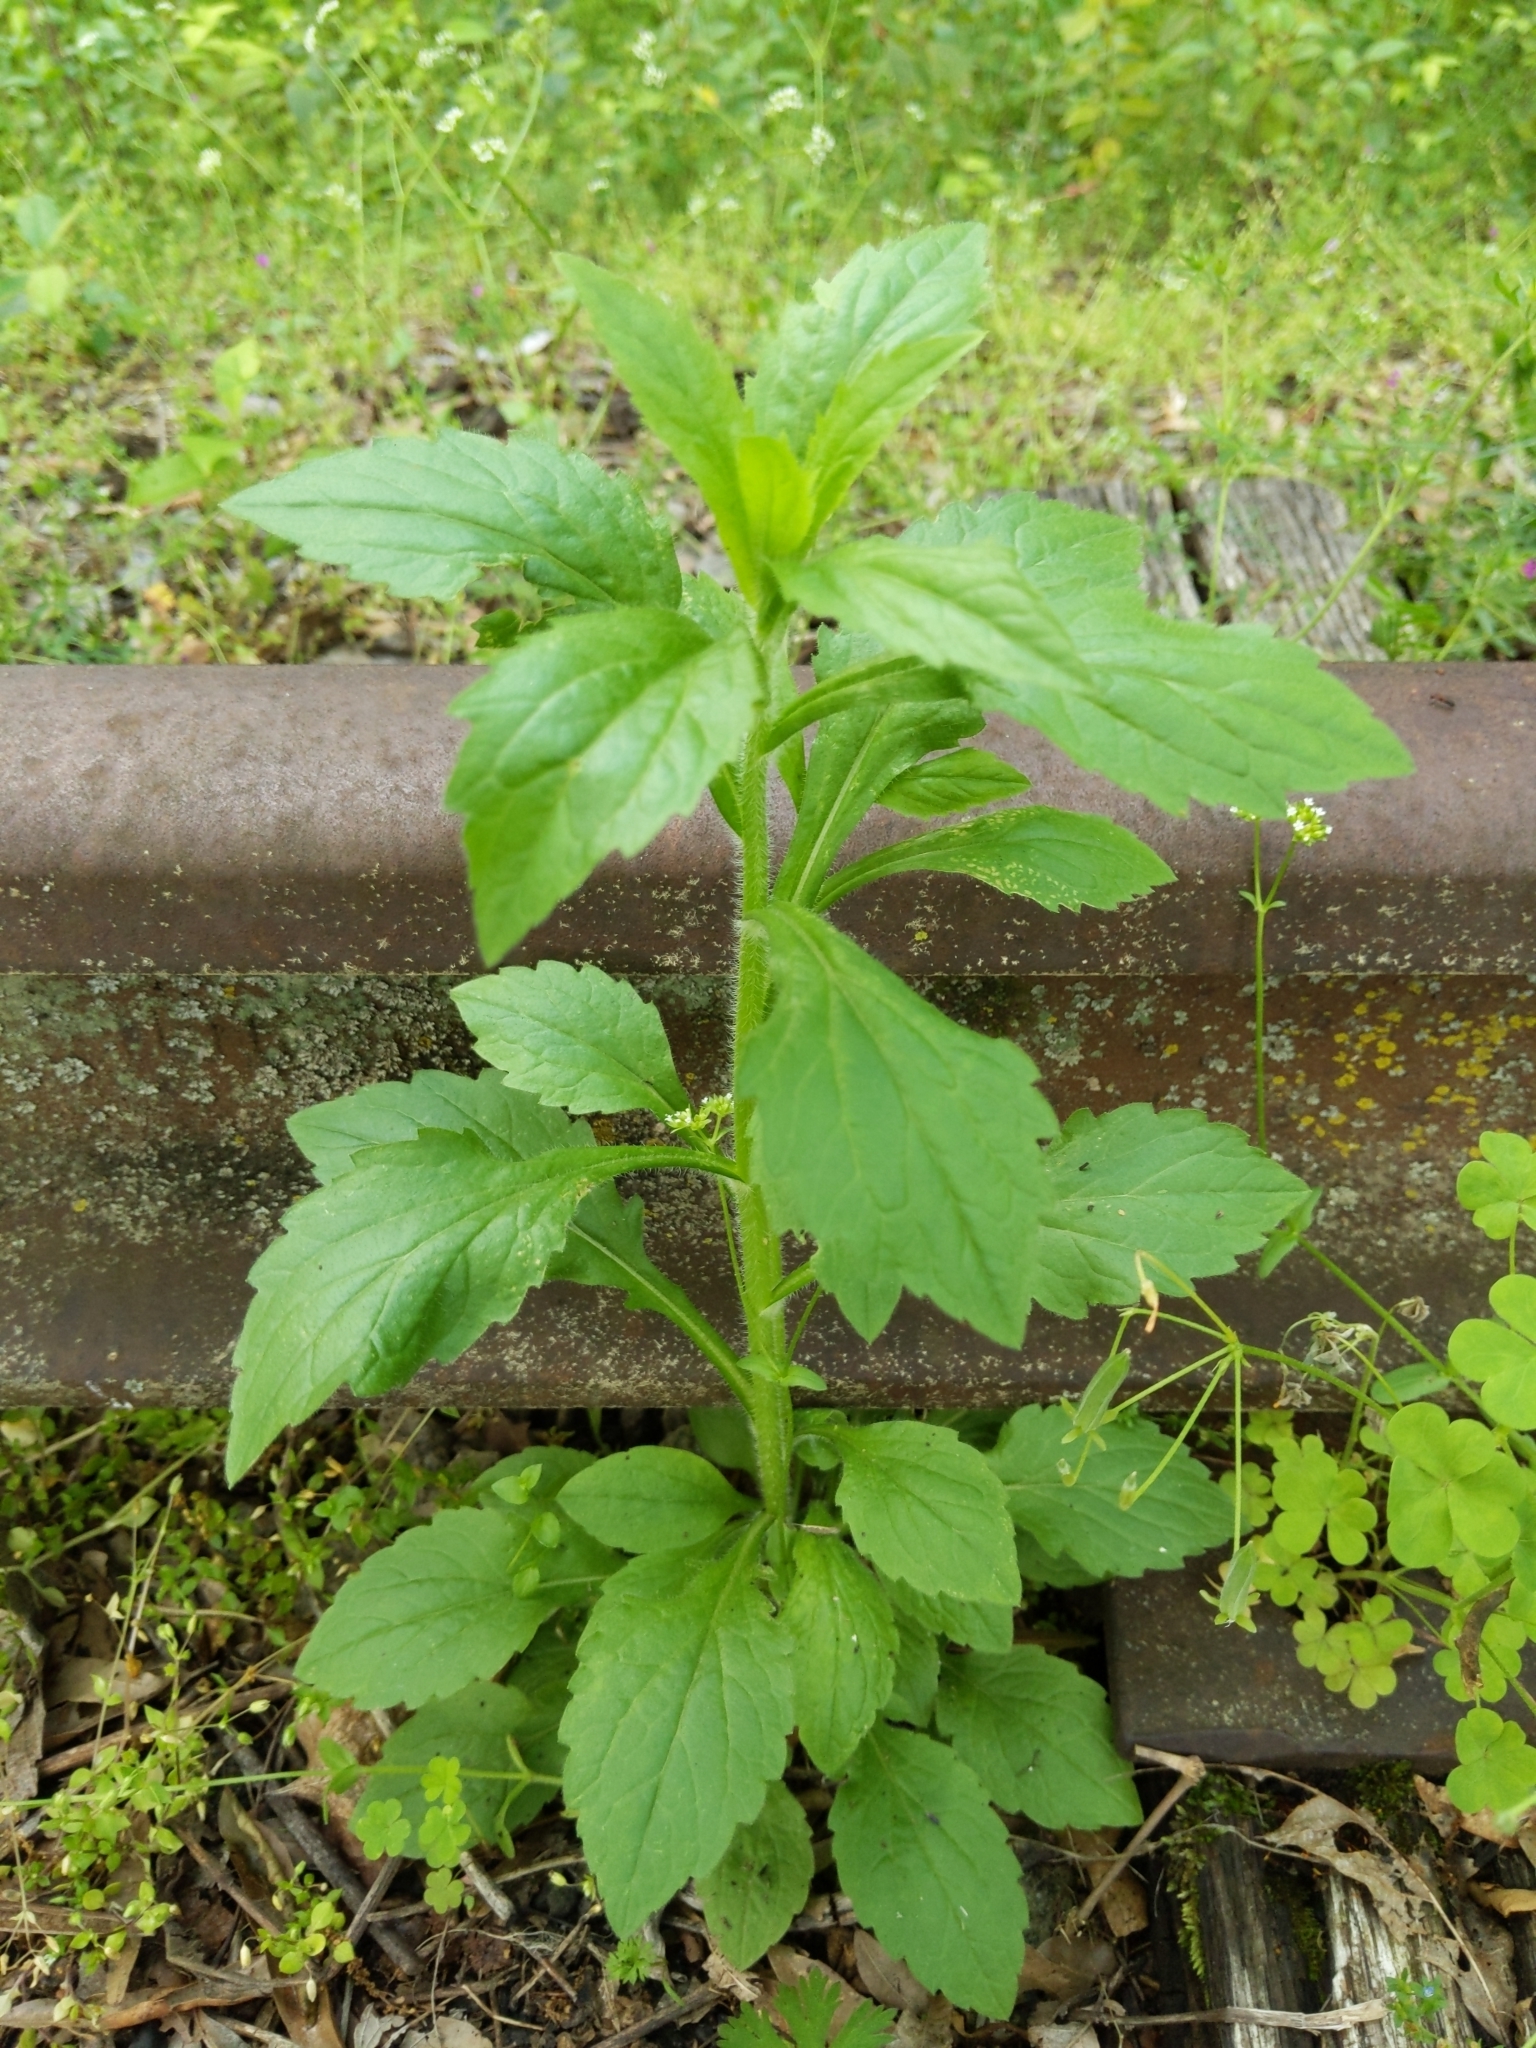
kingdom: Plantae
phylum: Tracheophyta
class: Magnoliopsida
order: Asterales
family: Asteraceae
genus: Erigeron
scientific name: Erigeron annuus
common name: Tall fleabane
